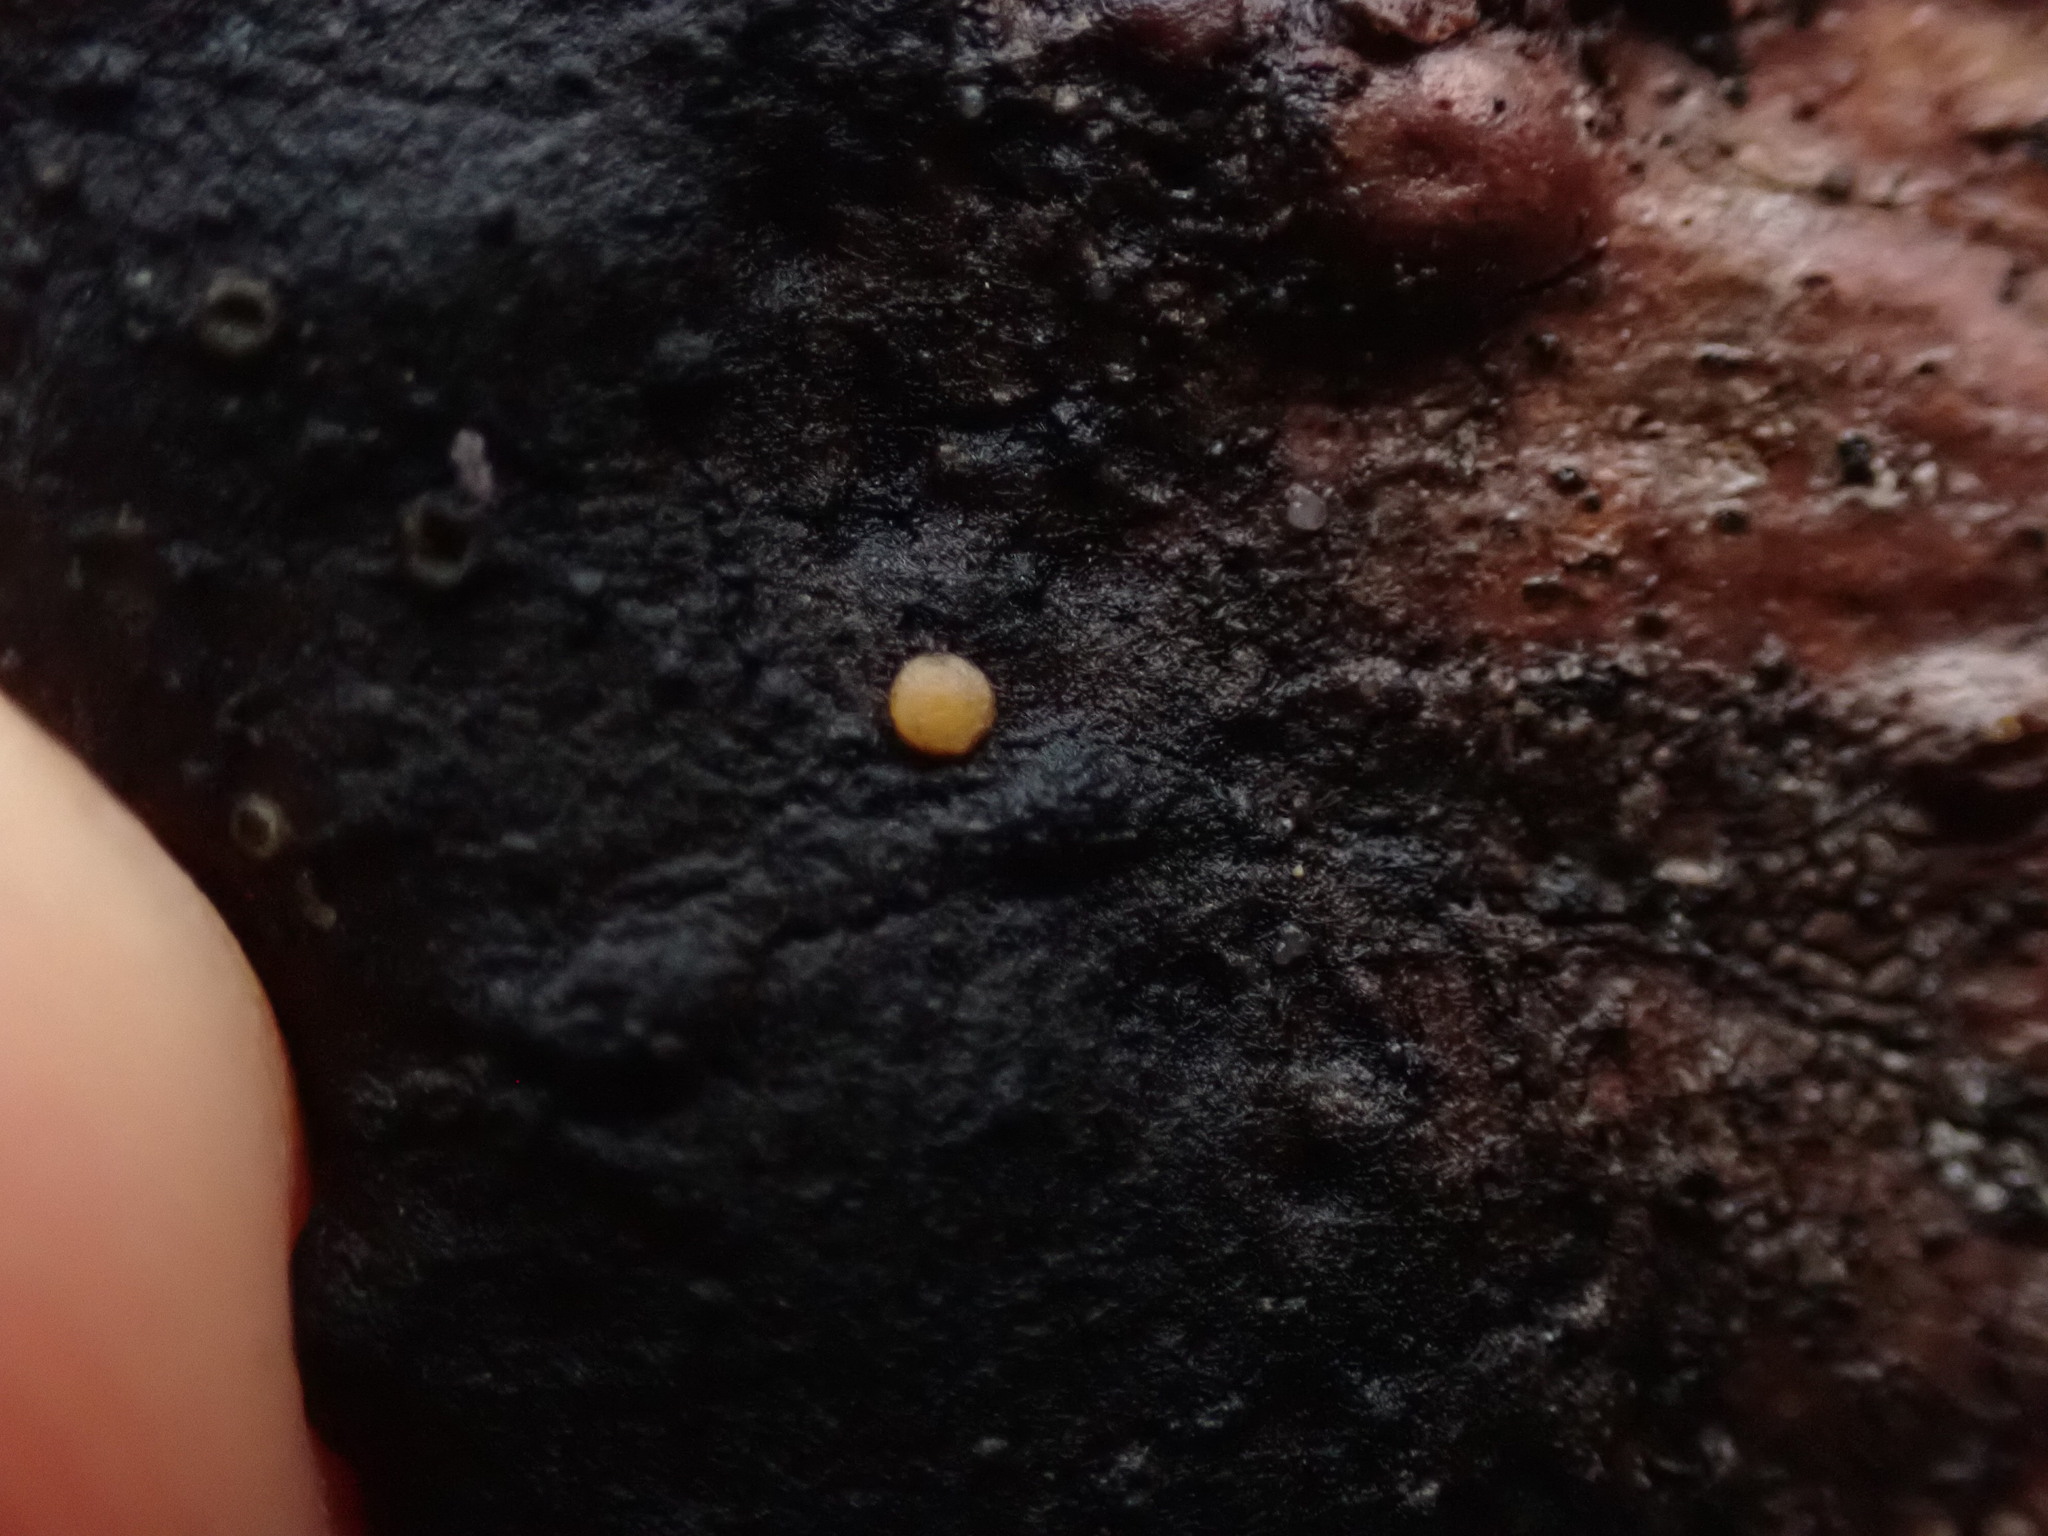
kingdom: Fungi
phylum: Ascomycota
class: Sareomycetes
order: Sareales
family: Sareaceae
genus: Sarea
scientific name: Sarea resinae
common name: Sarea lichen
